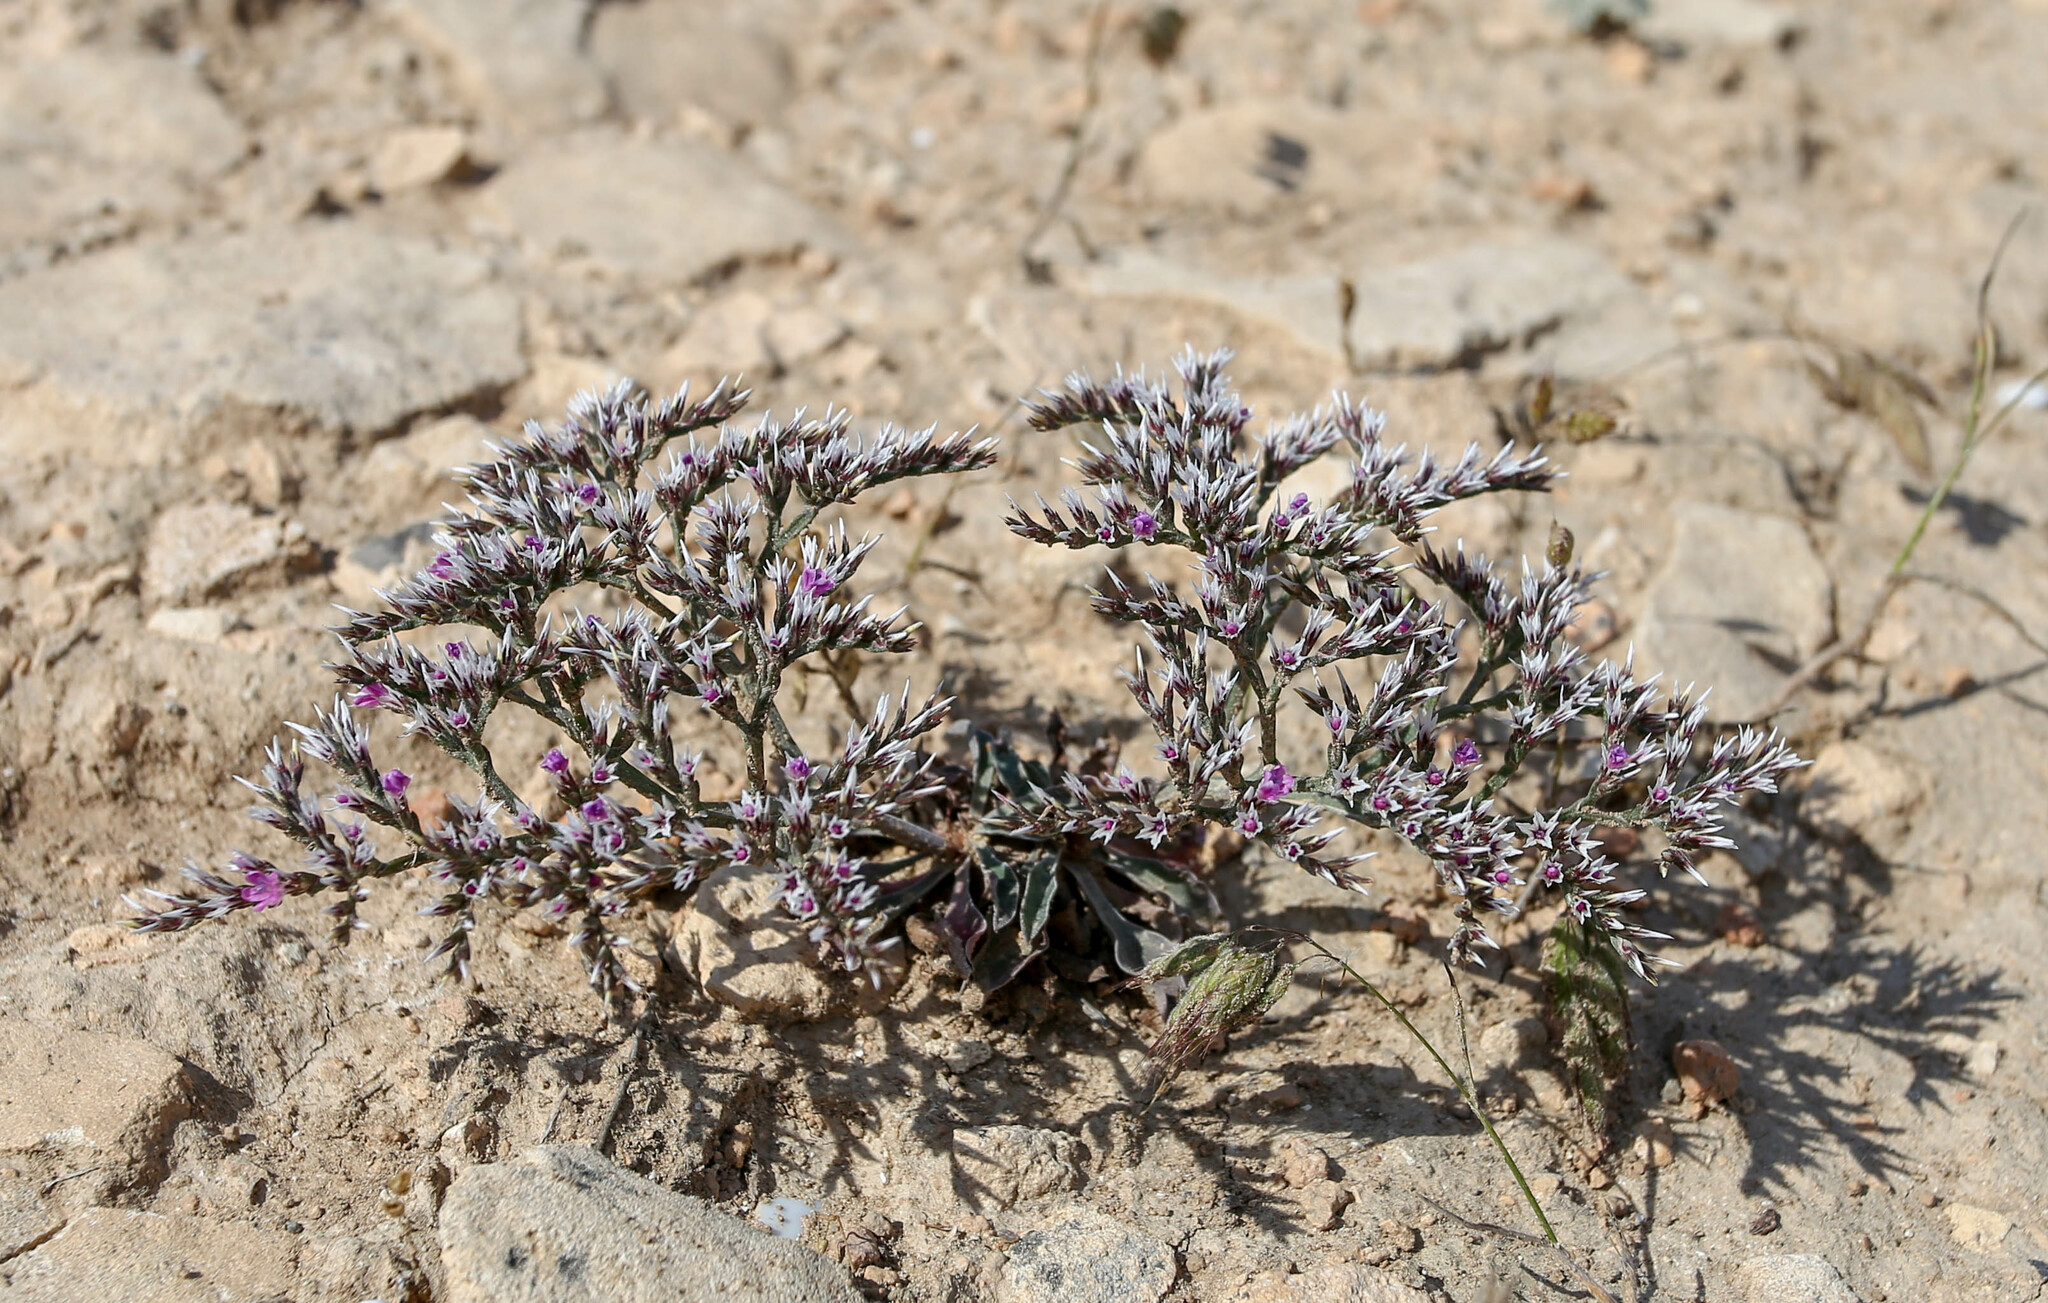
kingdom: Plantae
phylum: Tracheophyta
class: Magnoliopsida
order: Caryophyllales
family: Plumbaginaceae
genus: Goniolimon
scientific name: Goniolimon tataricum
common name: Statice
